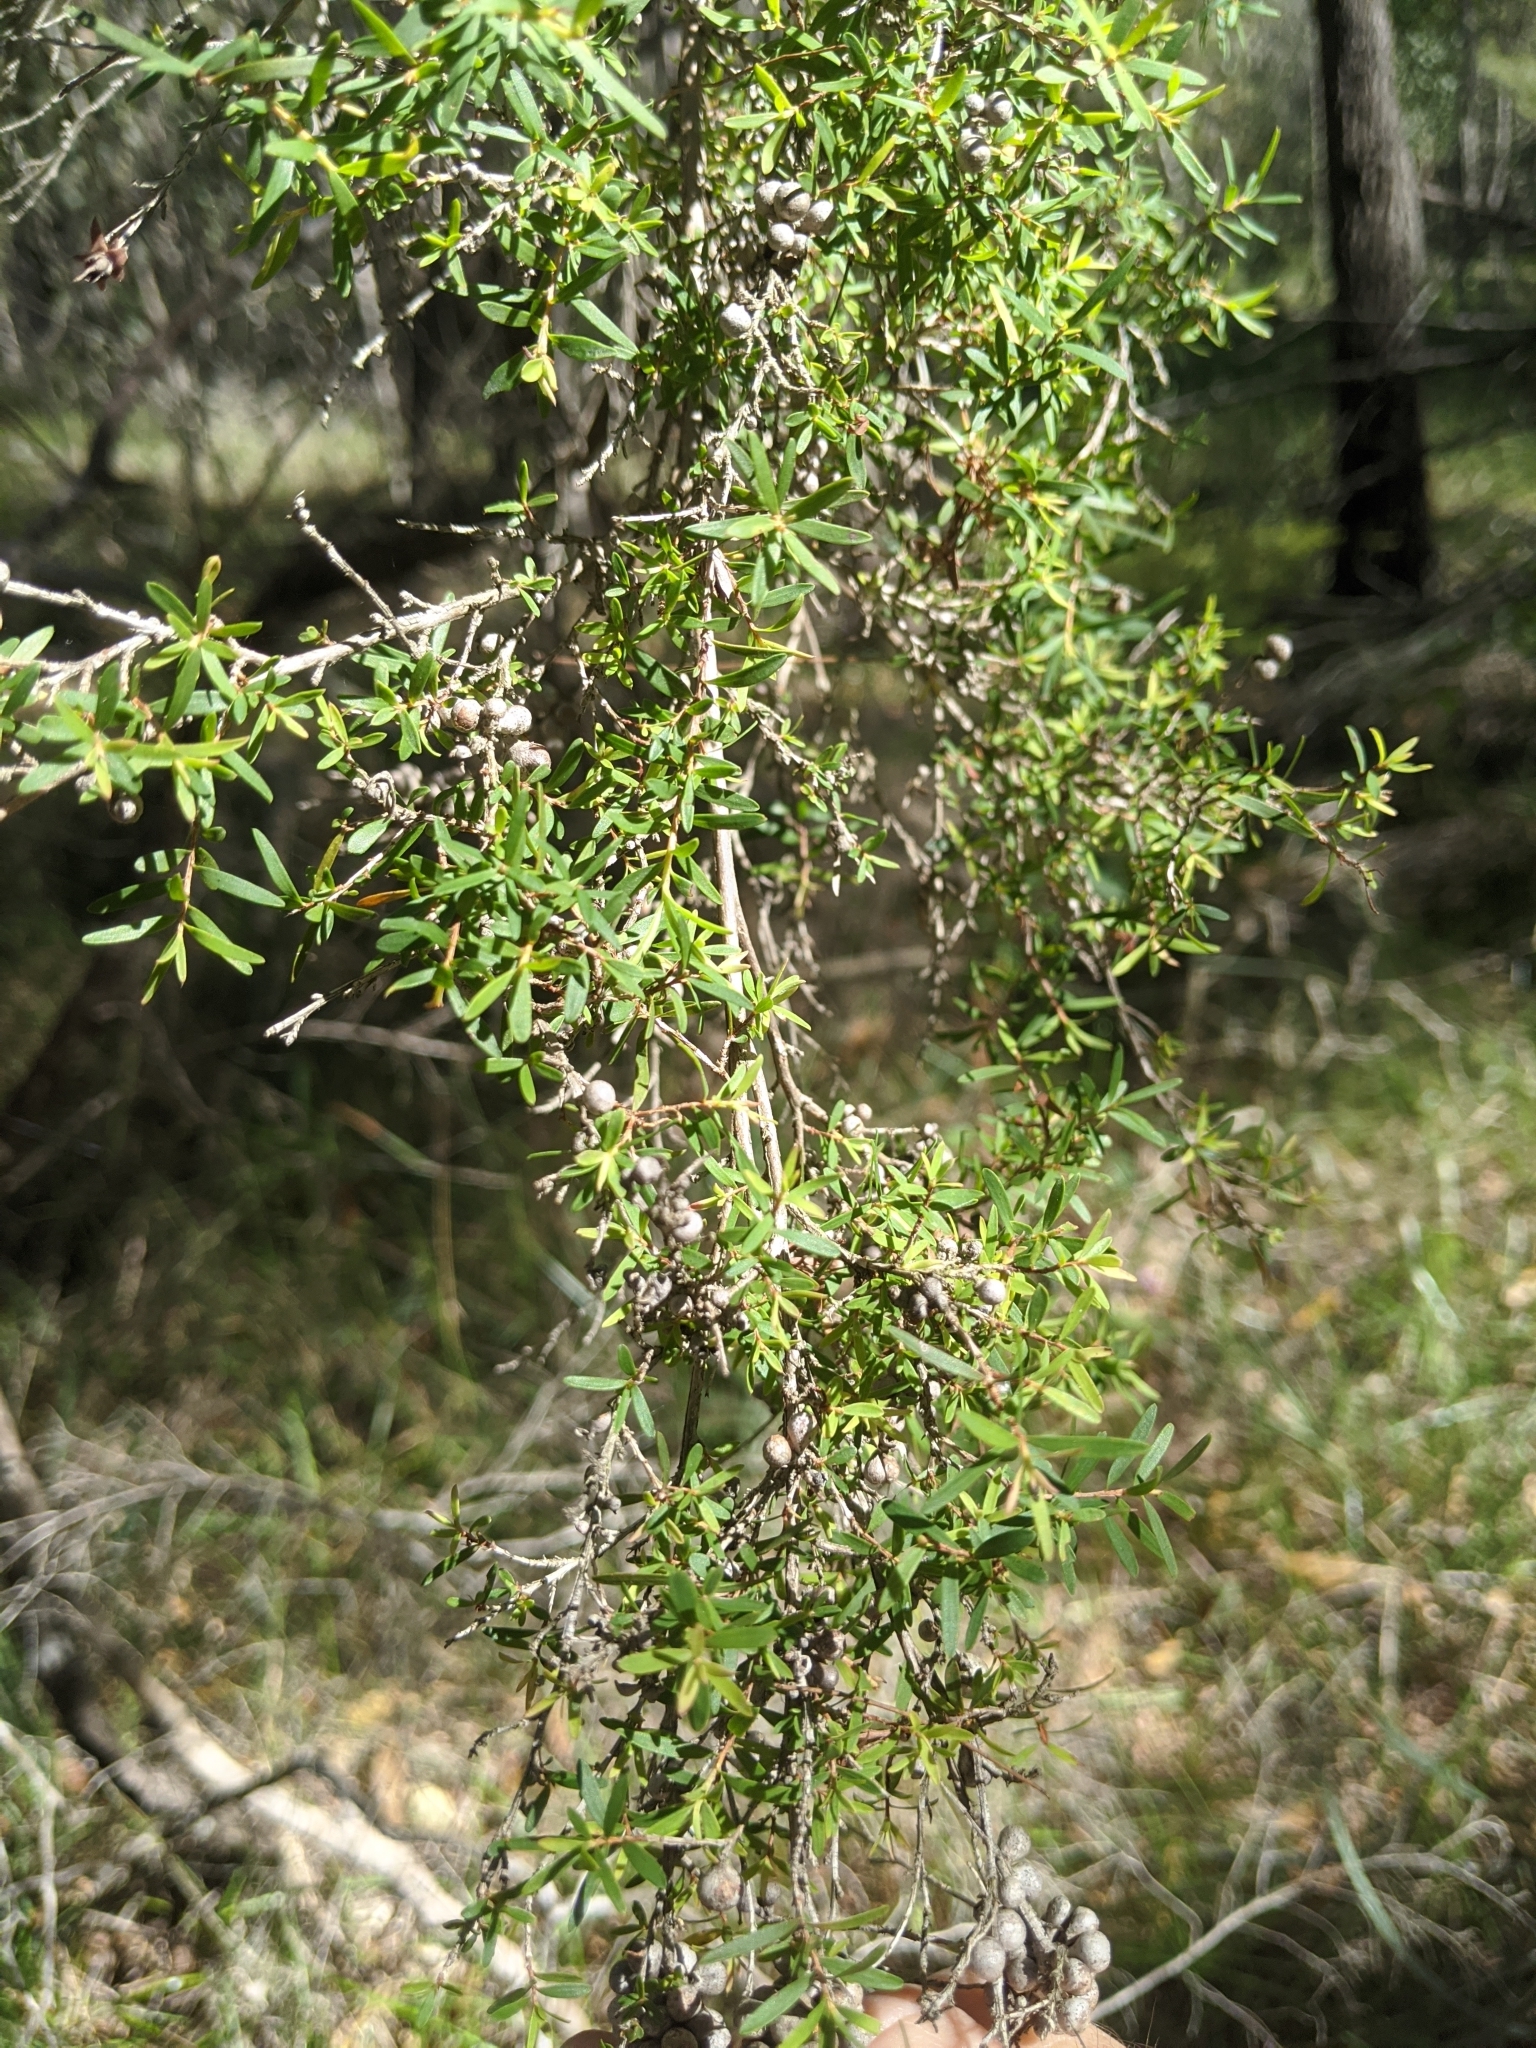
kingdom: Plantae
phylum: Tracheophyta
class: Magnoliopsida
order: Myrtales
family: Myrtaceae
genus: Leptospermum
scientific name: Leptospermum polygalifolium
